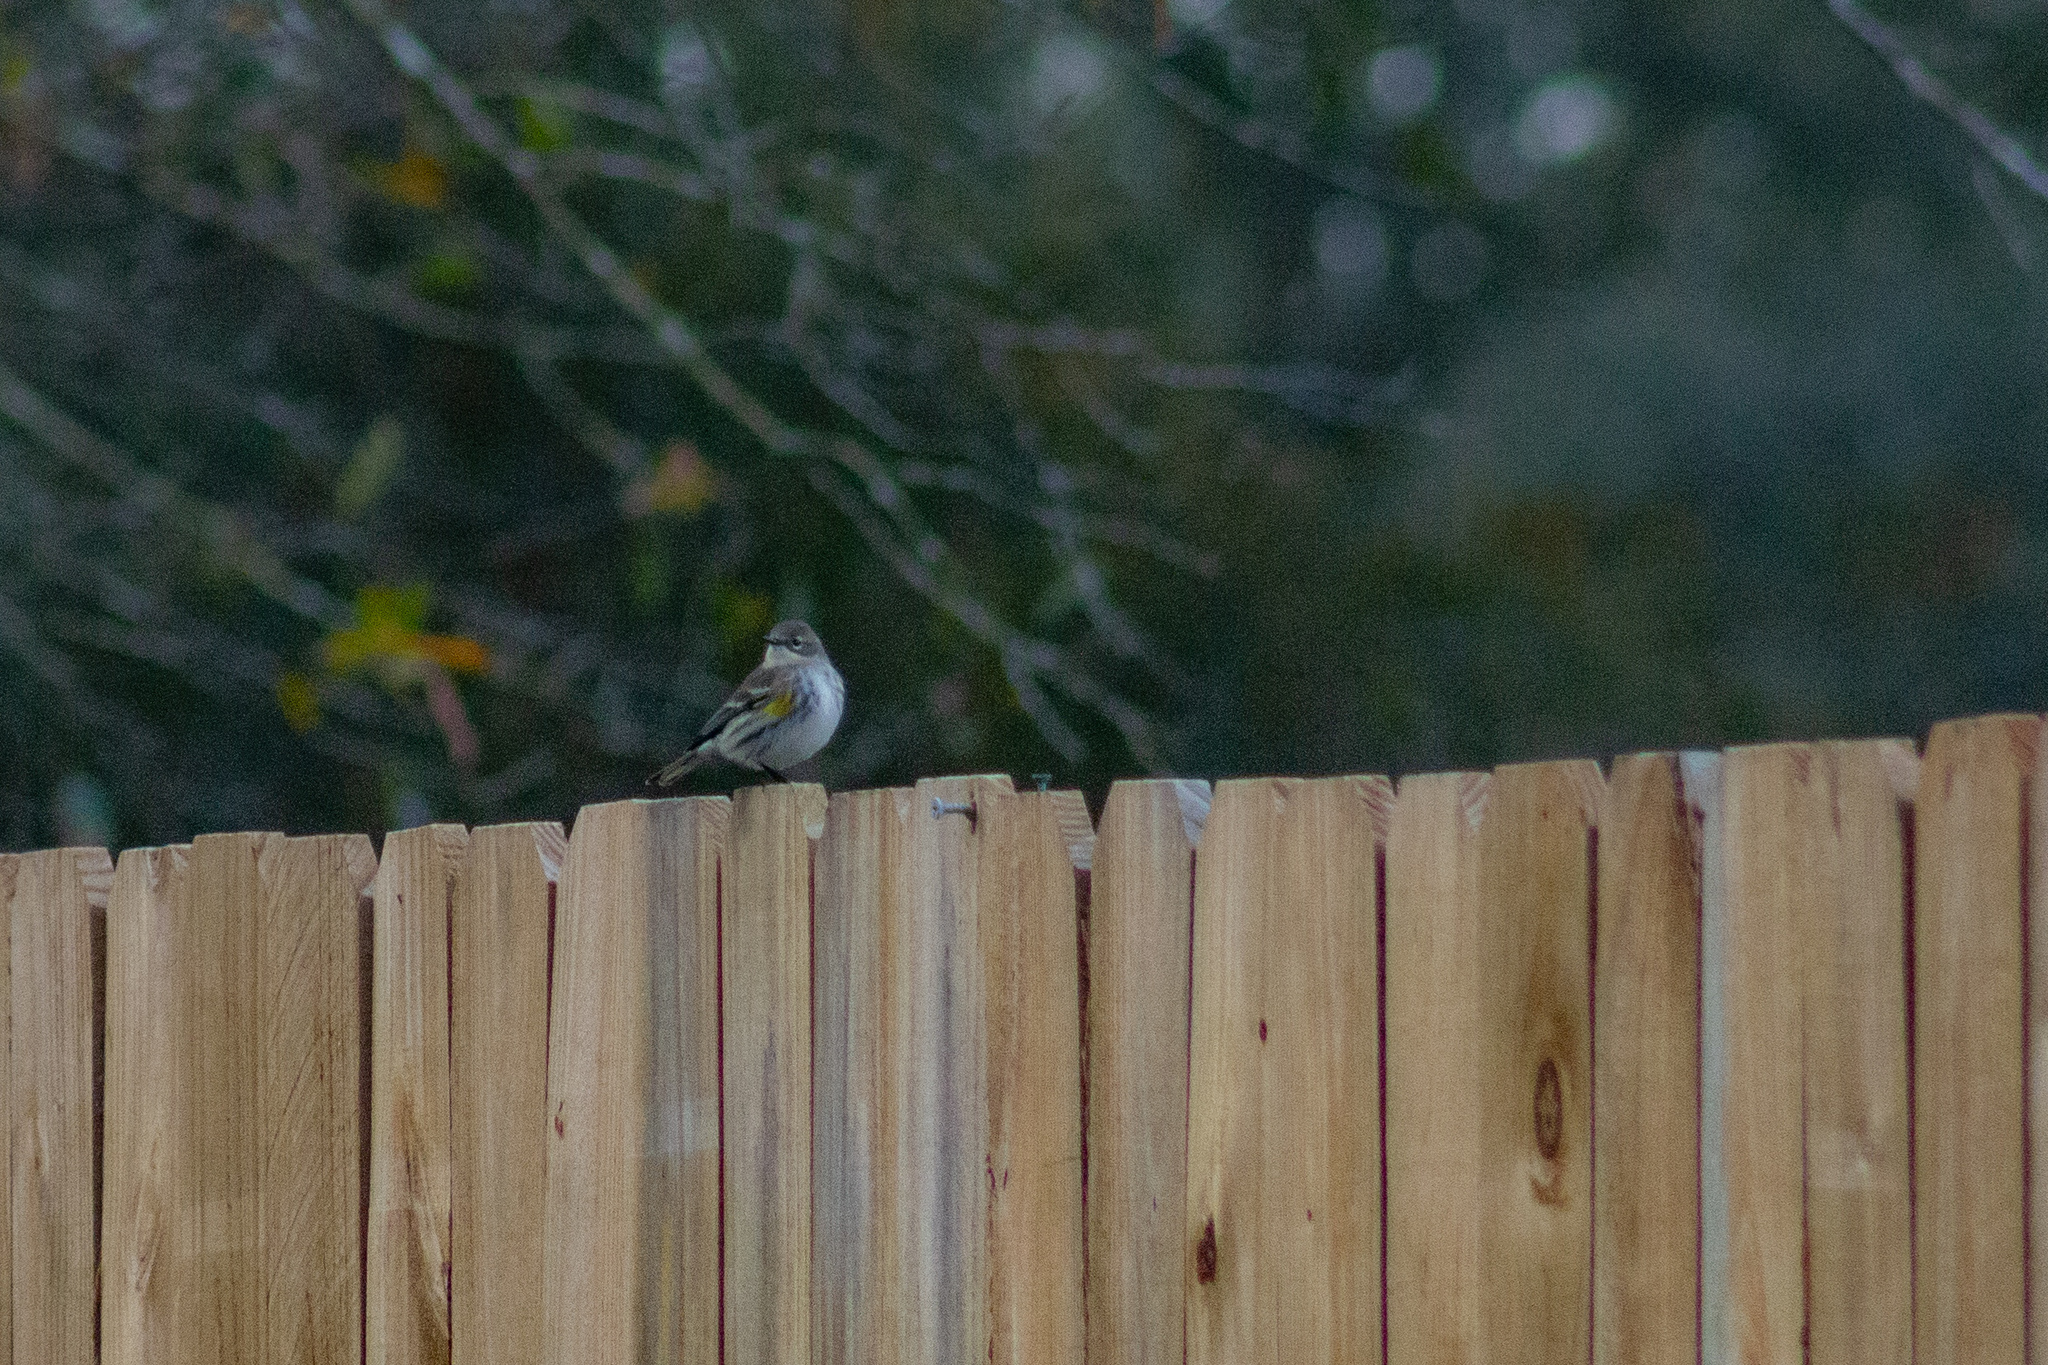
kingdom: Animalia
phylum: Chordata
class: Aves
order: Passeriformes
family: Parulidae
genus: Setophaga
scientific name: Setophaga coronata
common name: Myrtle warbler
